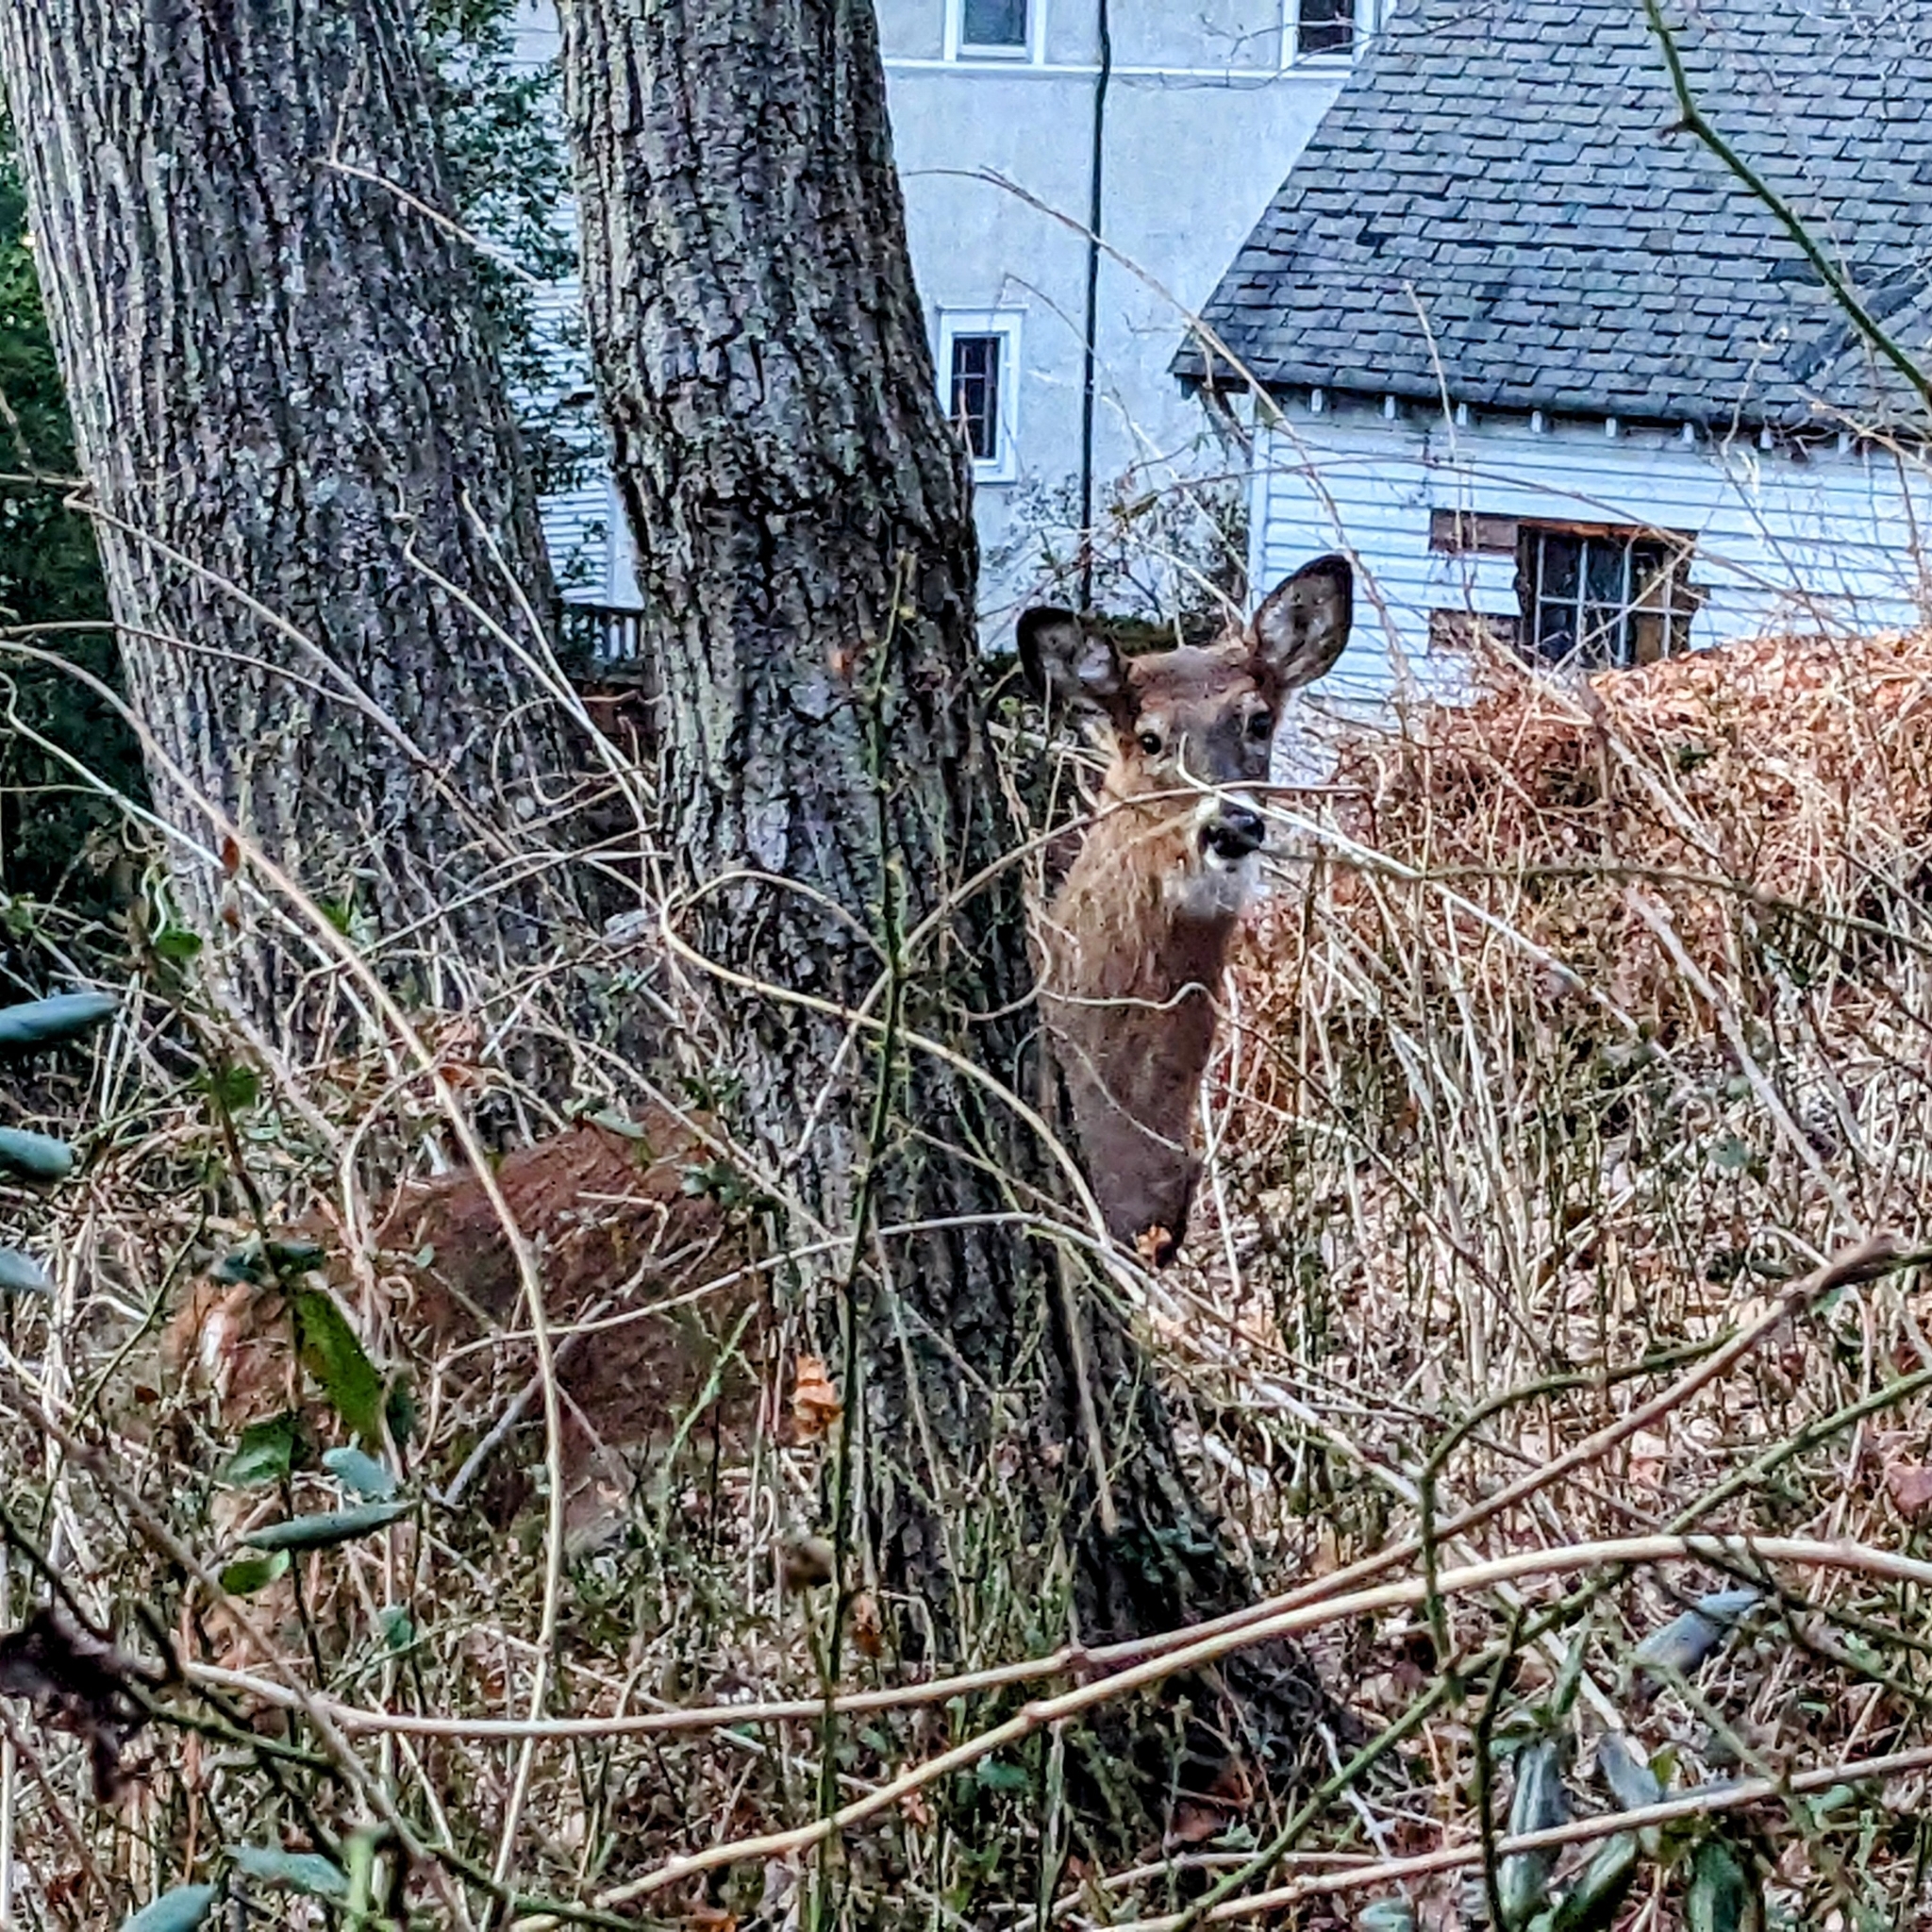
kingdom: Animalia
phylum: Chordata
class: Mammalia
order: Artiodactyla
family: Cervidae
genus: Odocoileus
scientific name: Odocoileus virginianus
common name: White-tailed deer
